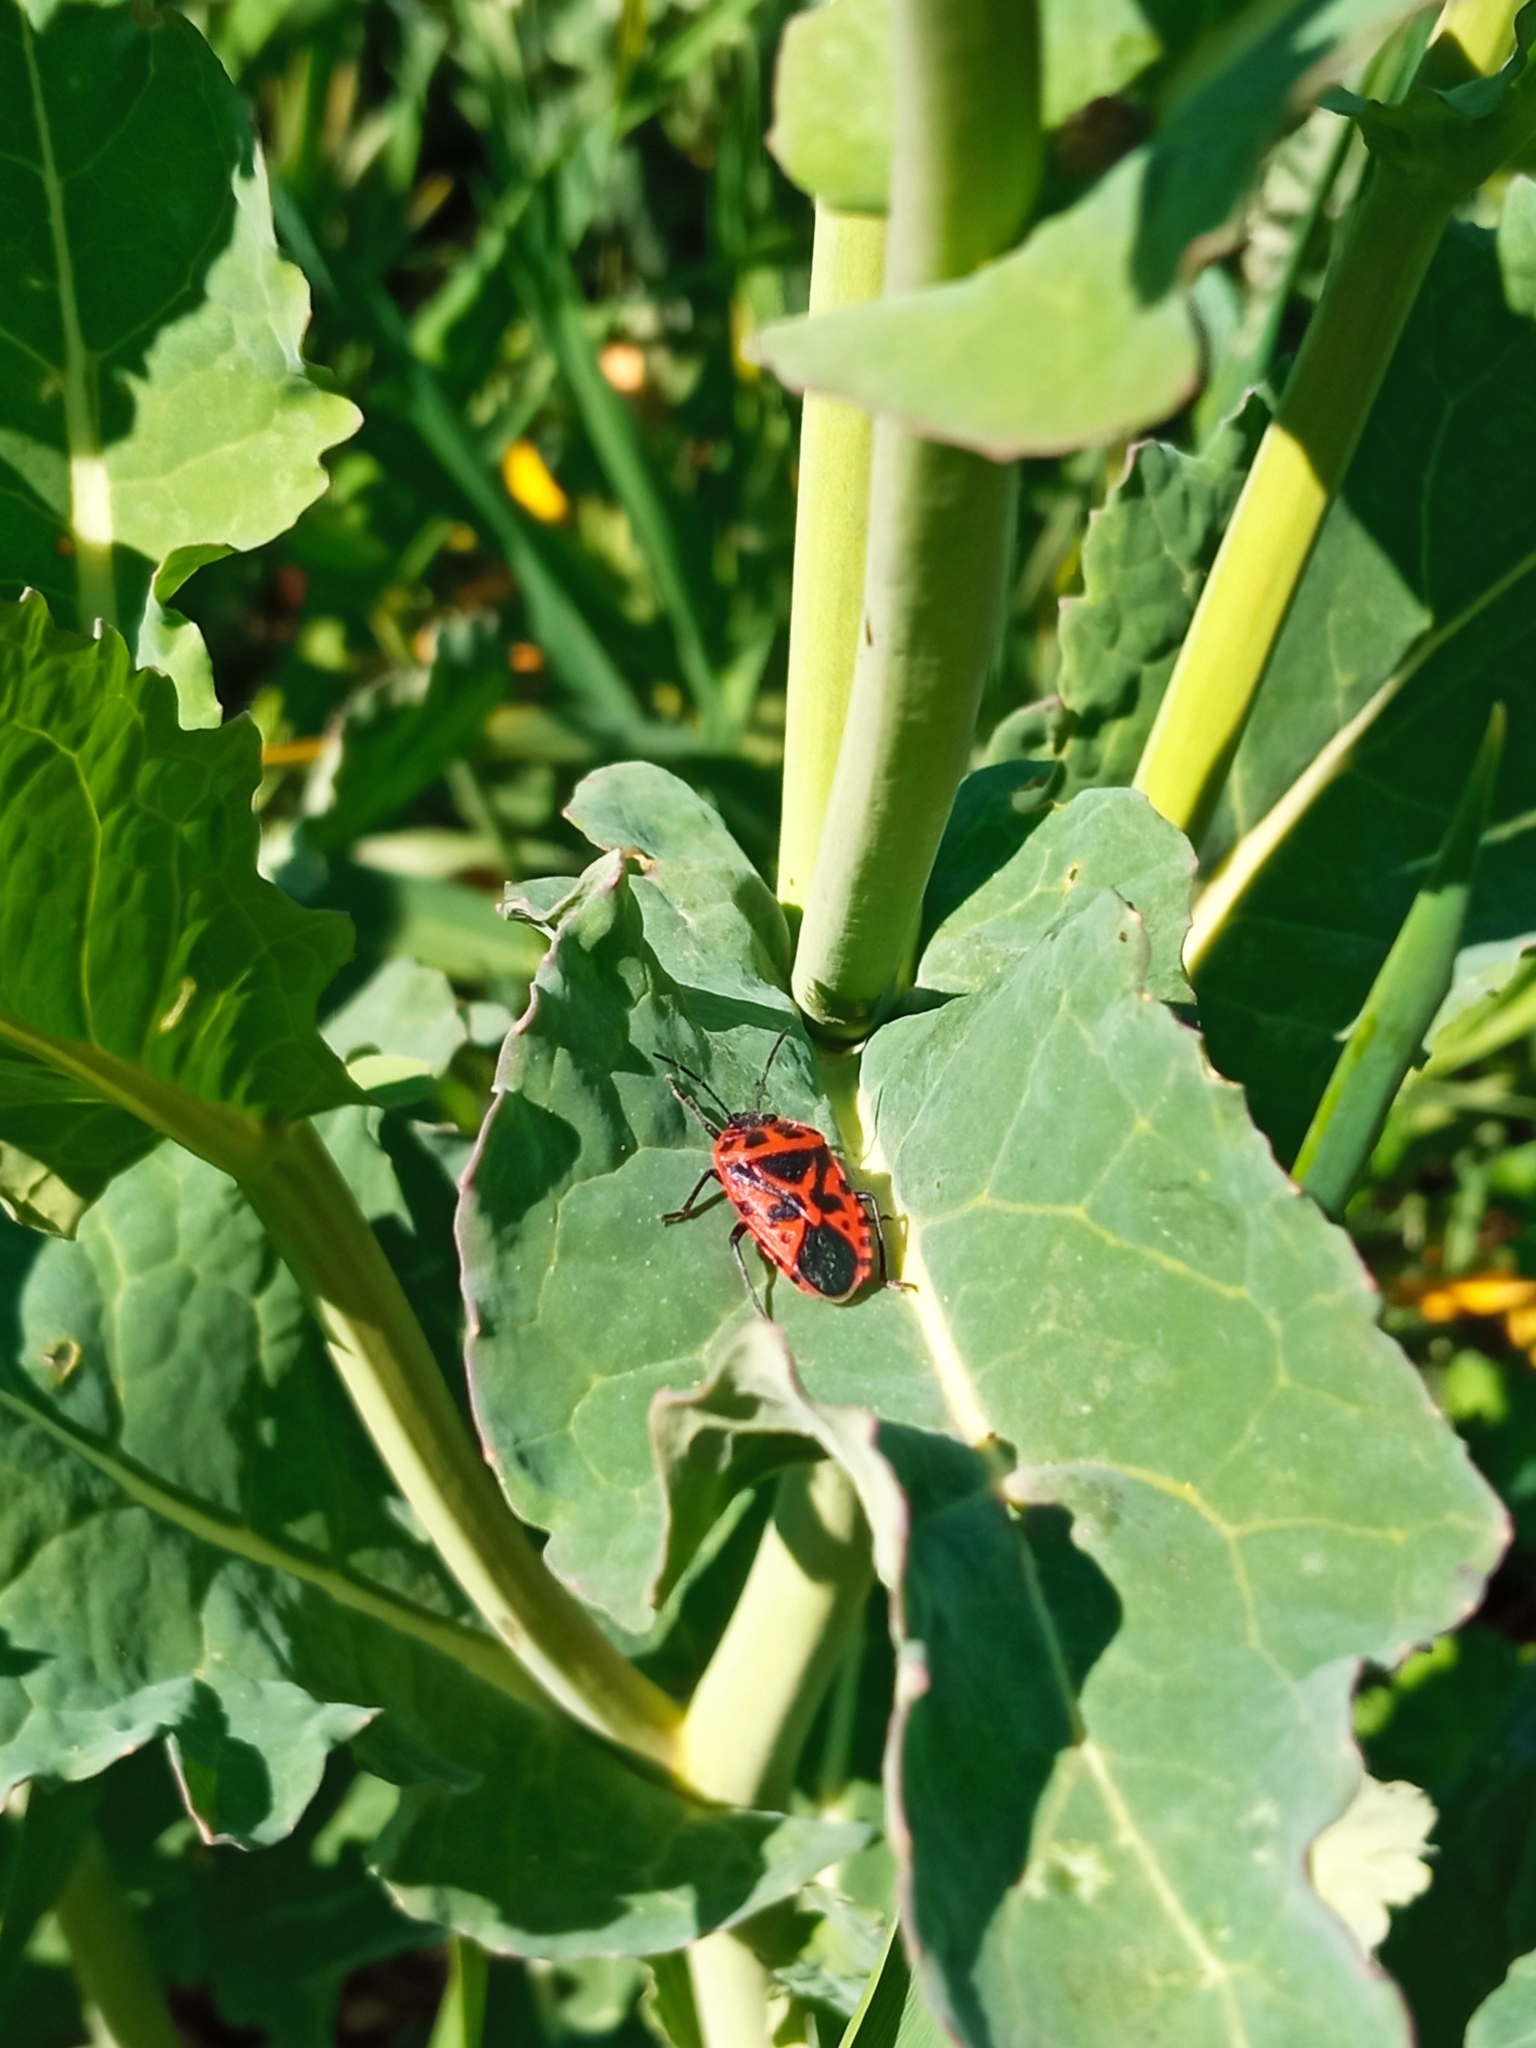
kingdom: Animalia
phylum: Arthropoda
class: Insecta
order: Hemiptera
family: Pentatomidae
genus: Eurydema
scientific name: Eurydema ventralis
